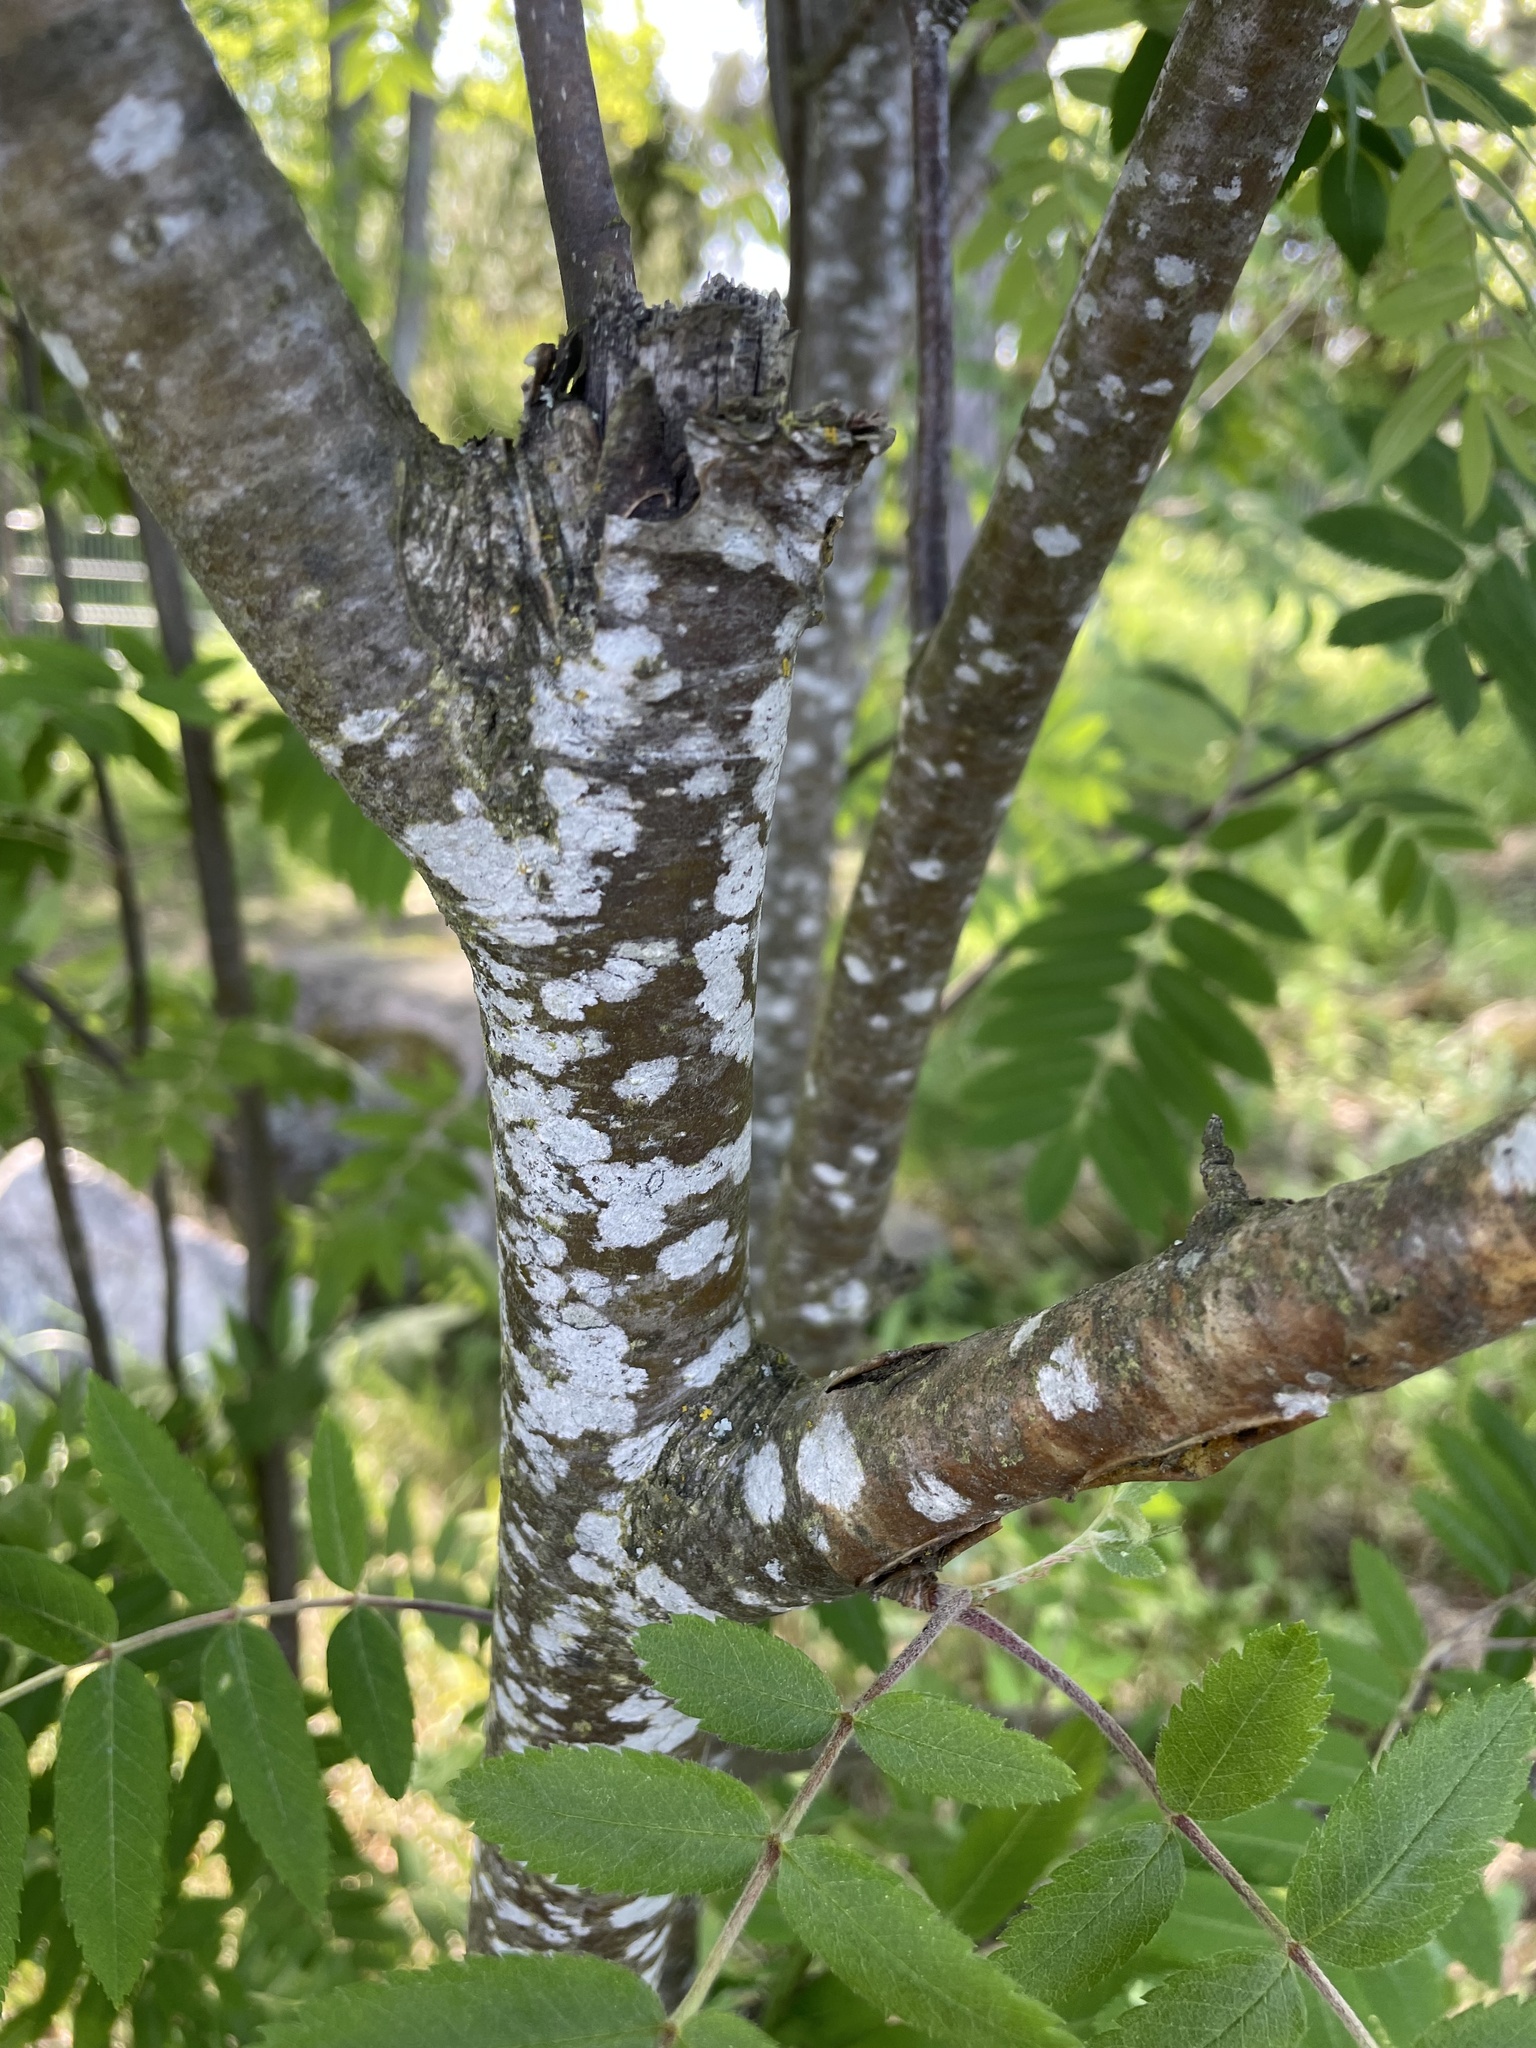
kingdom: Plantae
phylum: Tracheophyta
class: Magnoliopsida
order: Rosales
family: Rosaceae
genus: Sorbus
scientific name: Sorbus aucuparia
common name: Rowan
